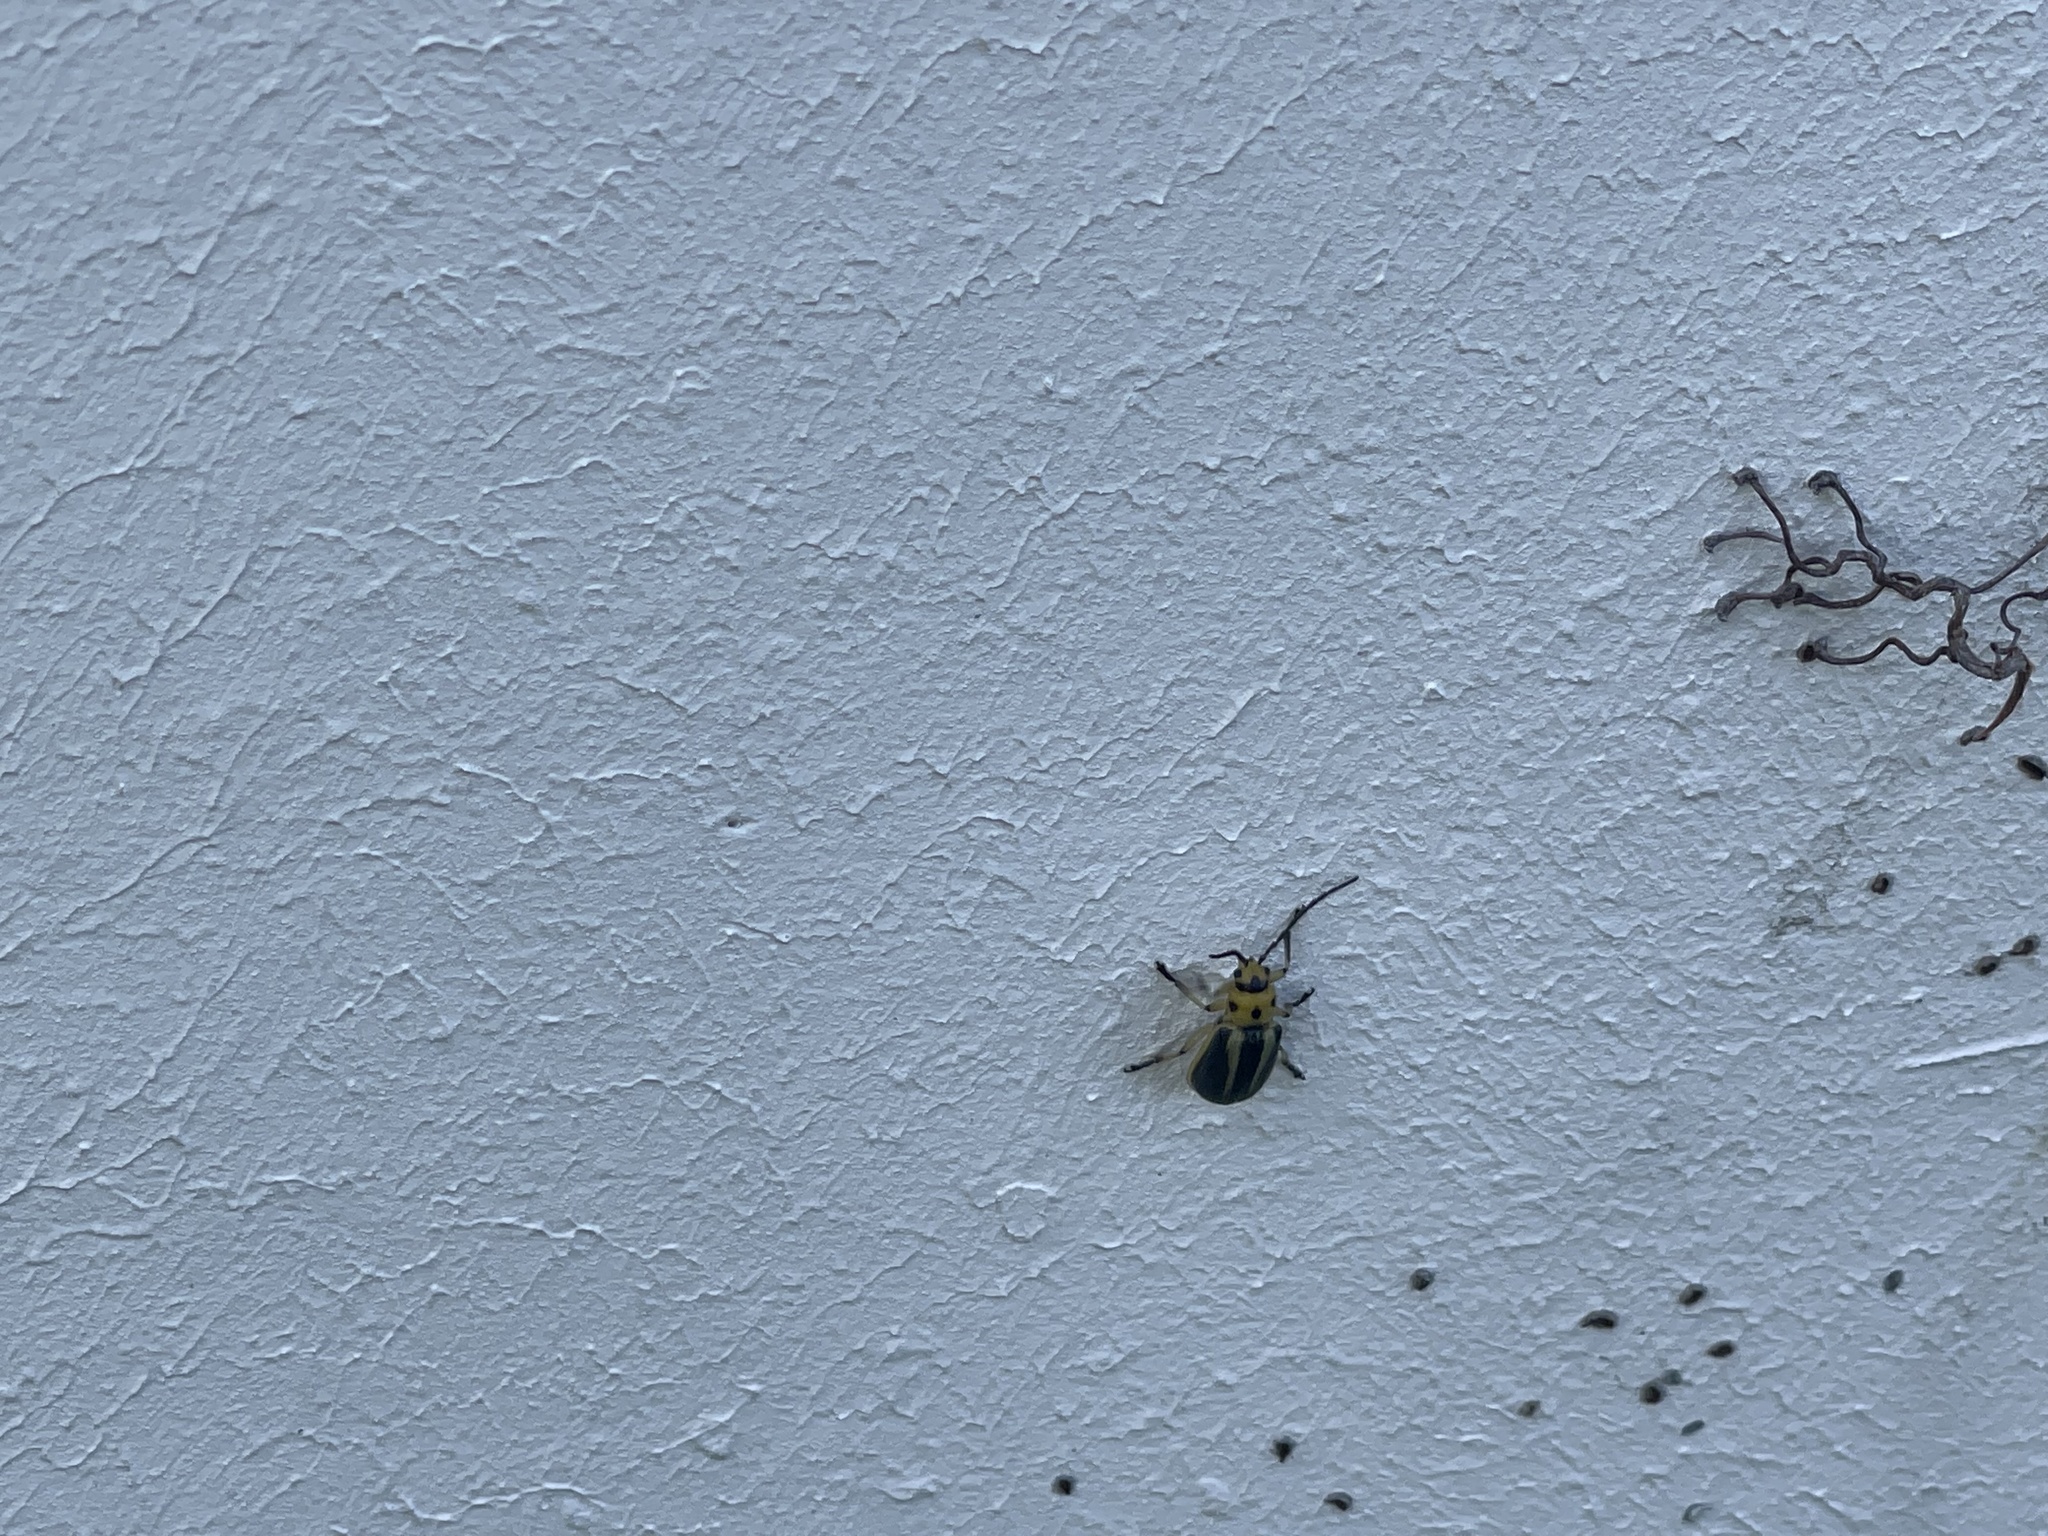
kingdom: Animalia
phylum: Arthropoda
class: Insecta
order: Coleoptera
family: Chrysomelidae
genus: Trirhabda
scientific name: Trirhabda bacharidis
